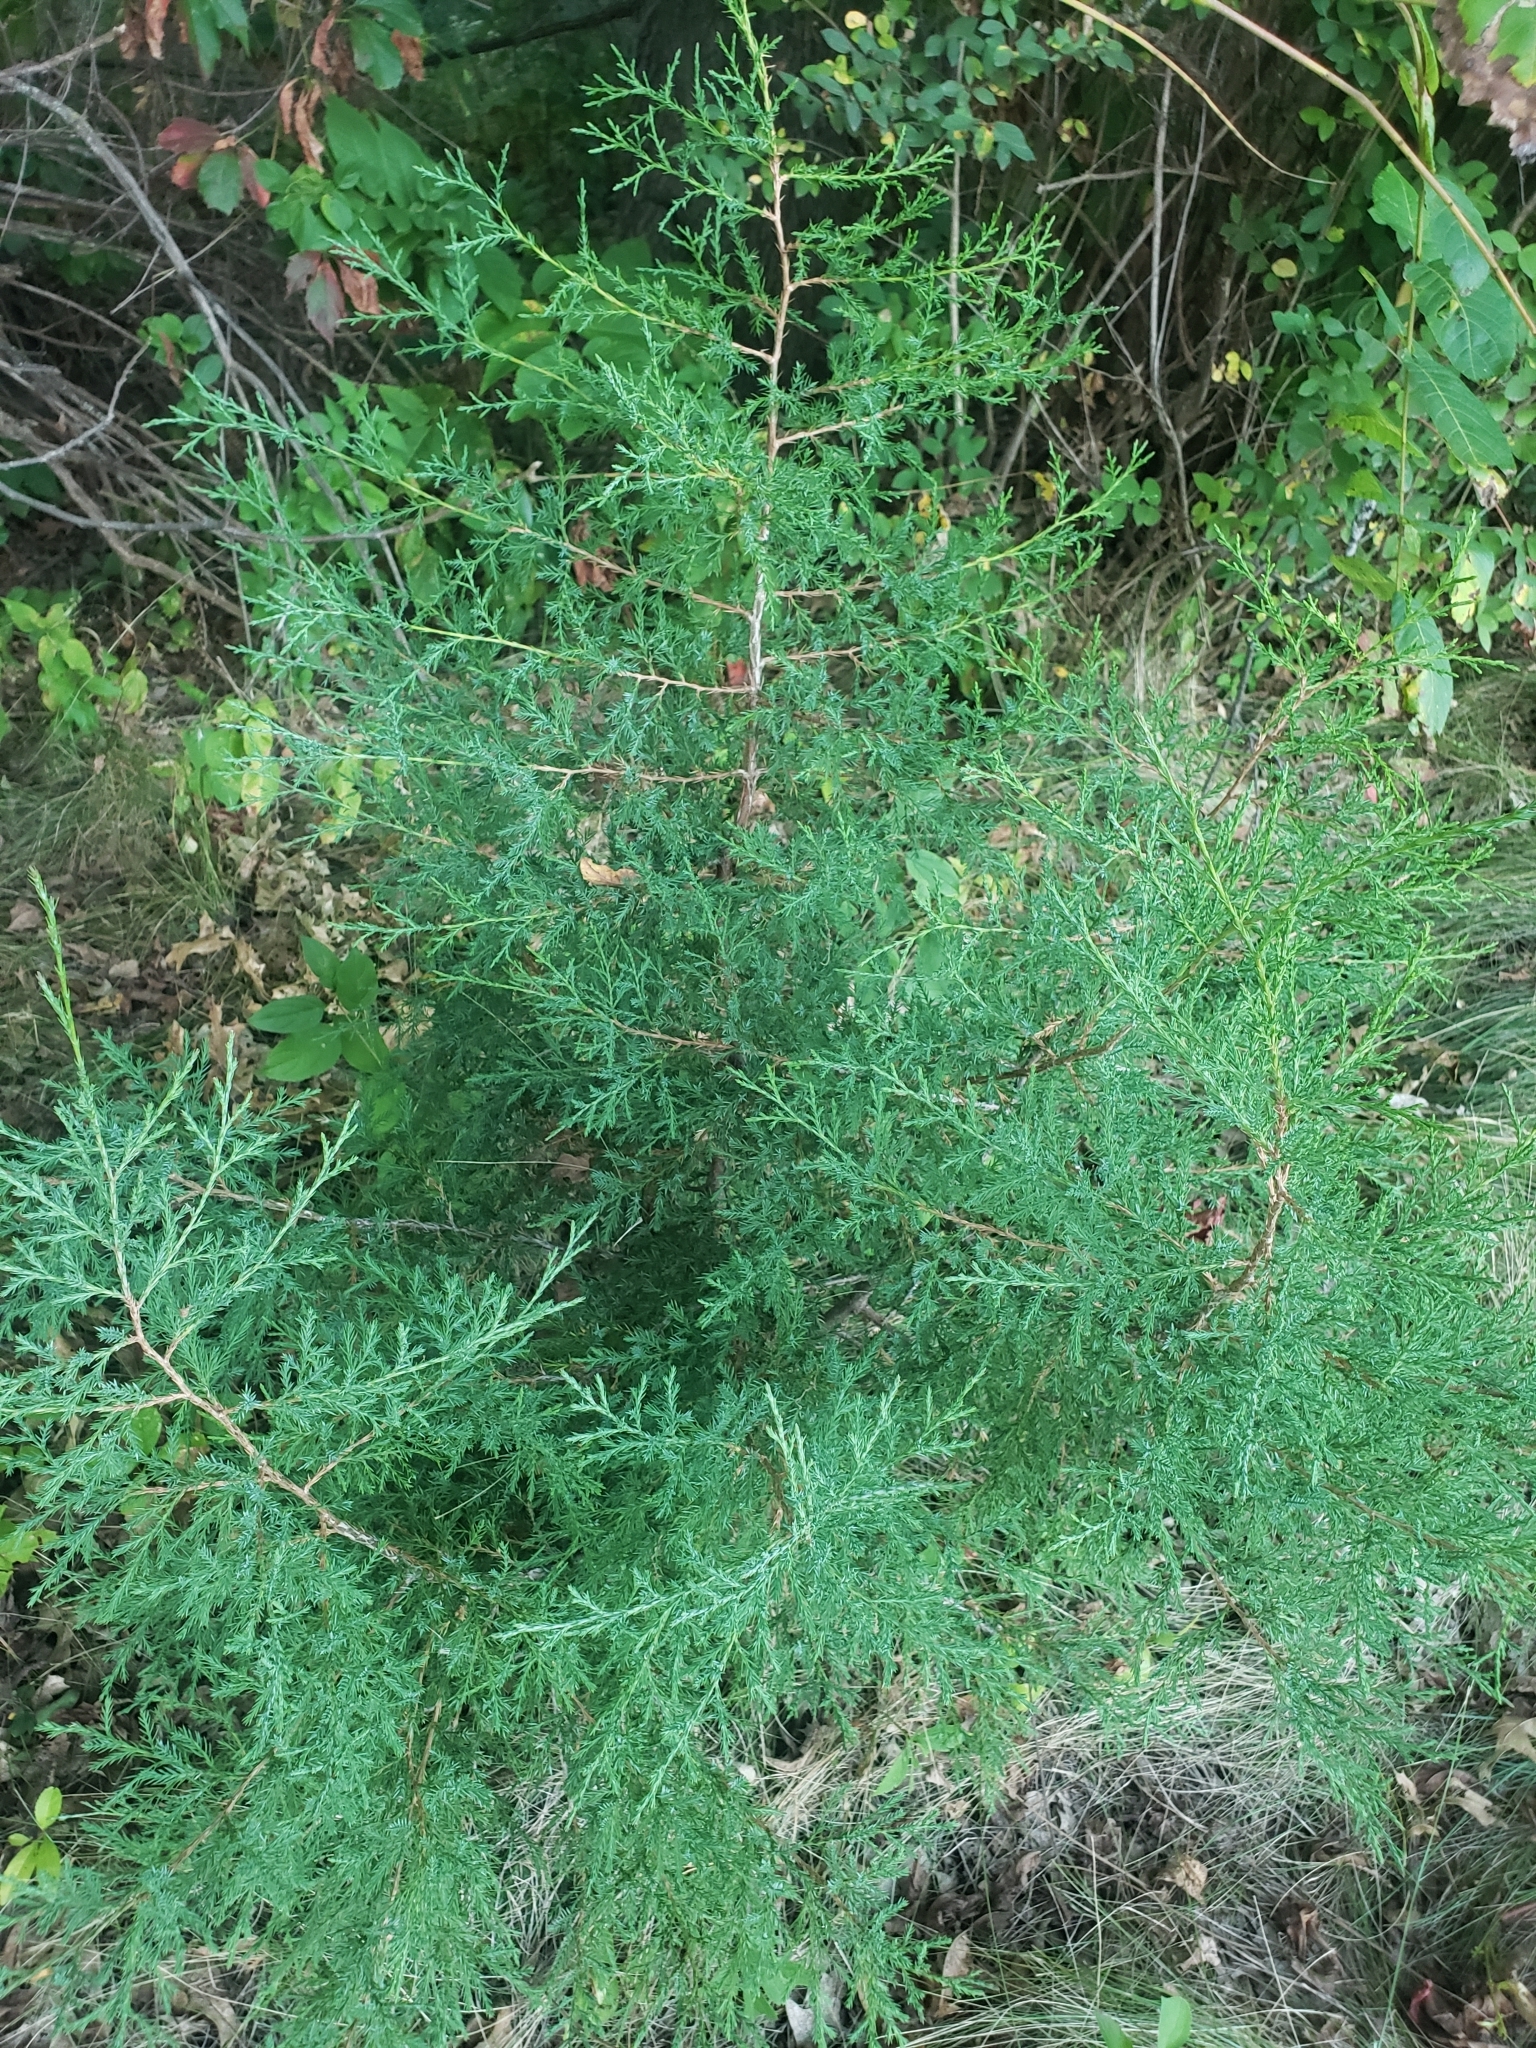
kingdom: Plantae
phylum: Tracheophyta
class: Pinopsida
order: Pinales
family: Cupressaceae
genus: Juniperus
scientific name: Juniperus virginiana
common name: Red juniper
